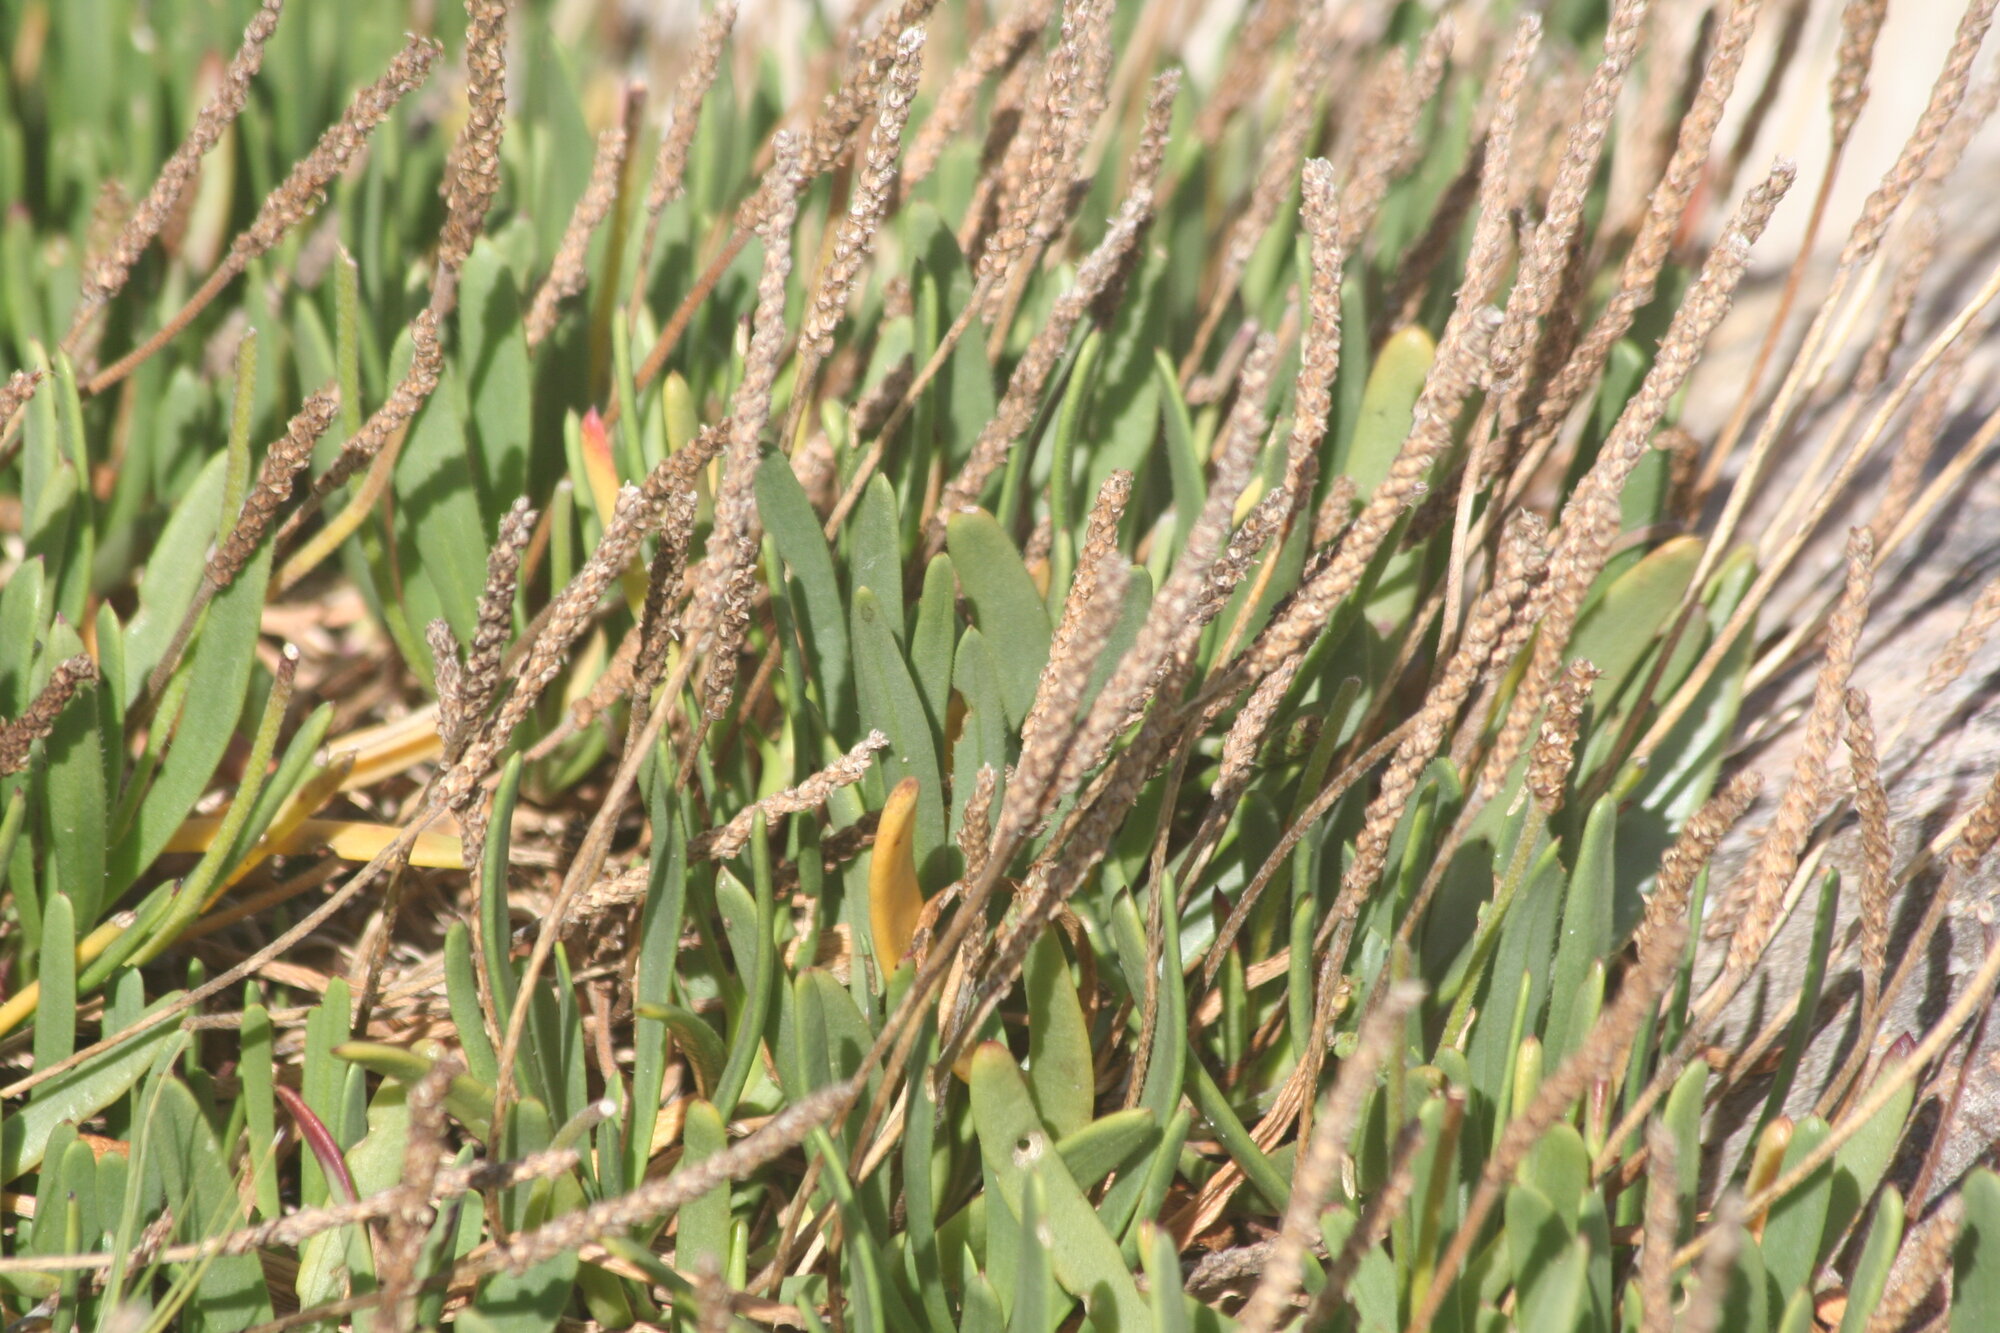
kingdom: Plantae
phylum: Tracheophyta
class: Magnoliopsida
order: Lamiales
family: Plantaginaceae
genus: Plantago
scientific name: Plantago carnosa
